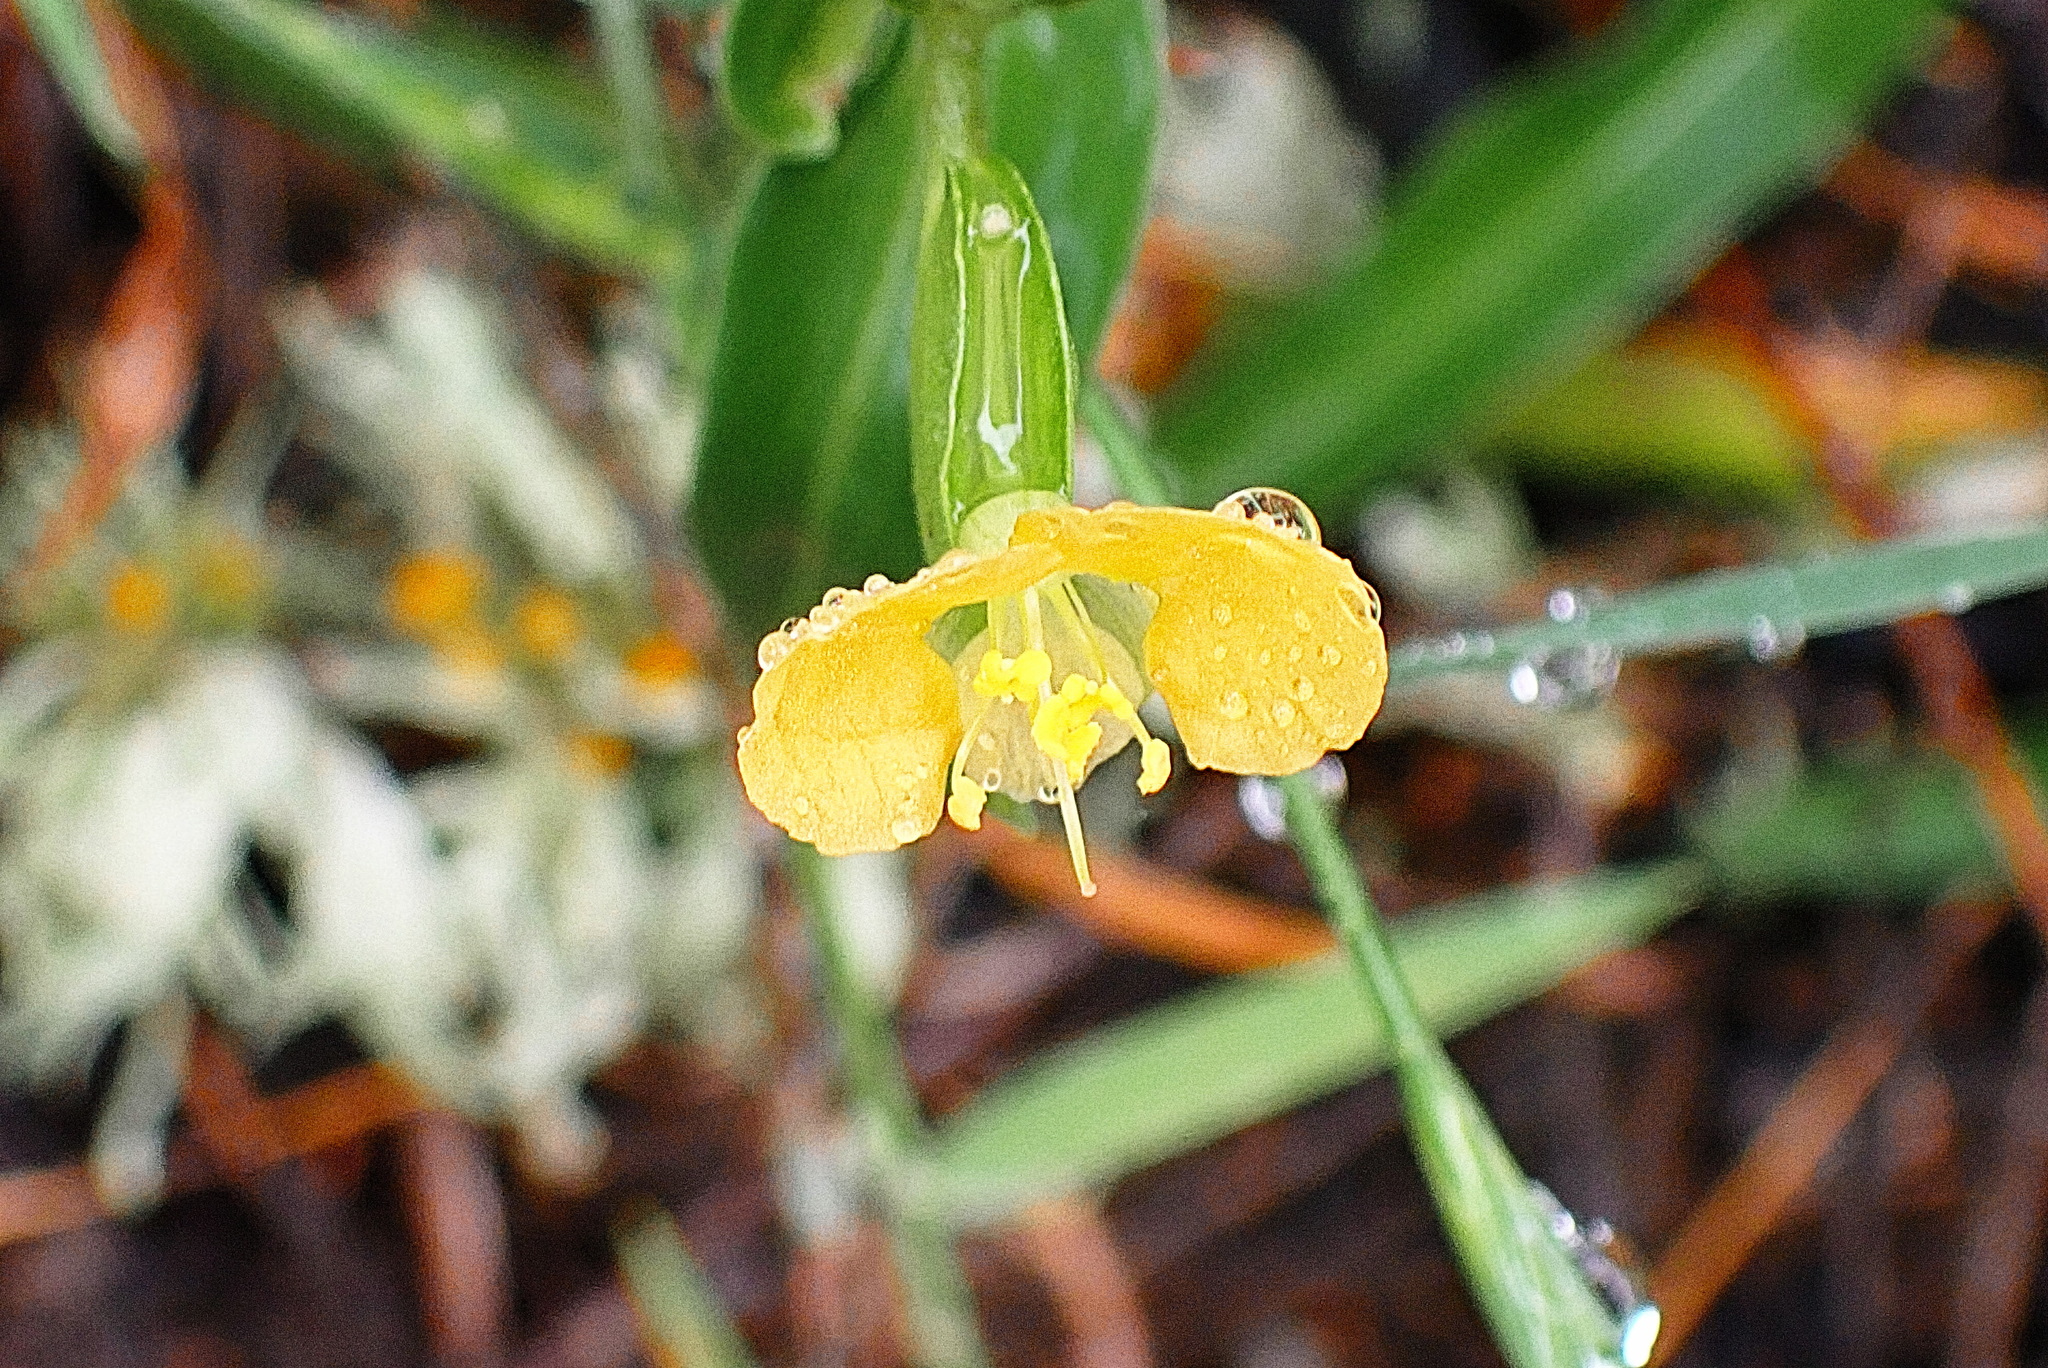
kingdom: Plantae
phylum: Tracheophyta
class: Liliopsida
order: Commelinales
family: Commelinaceae
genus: Commelina
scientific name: Commelina africana
